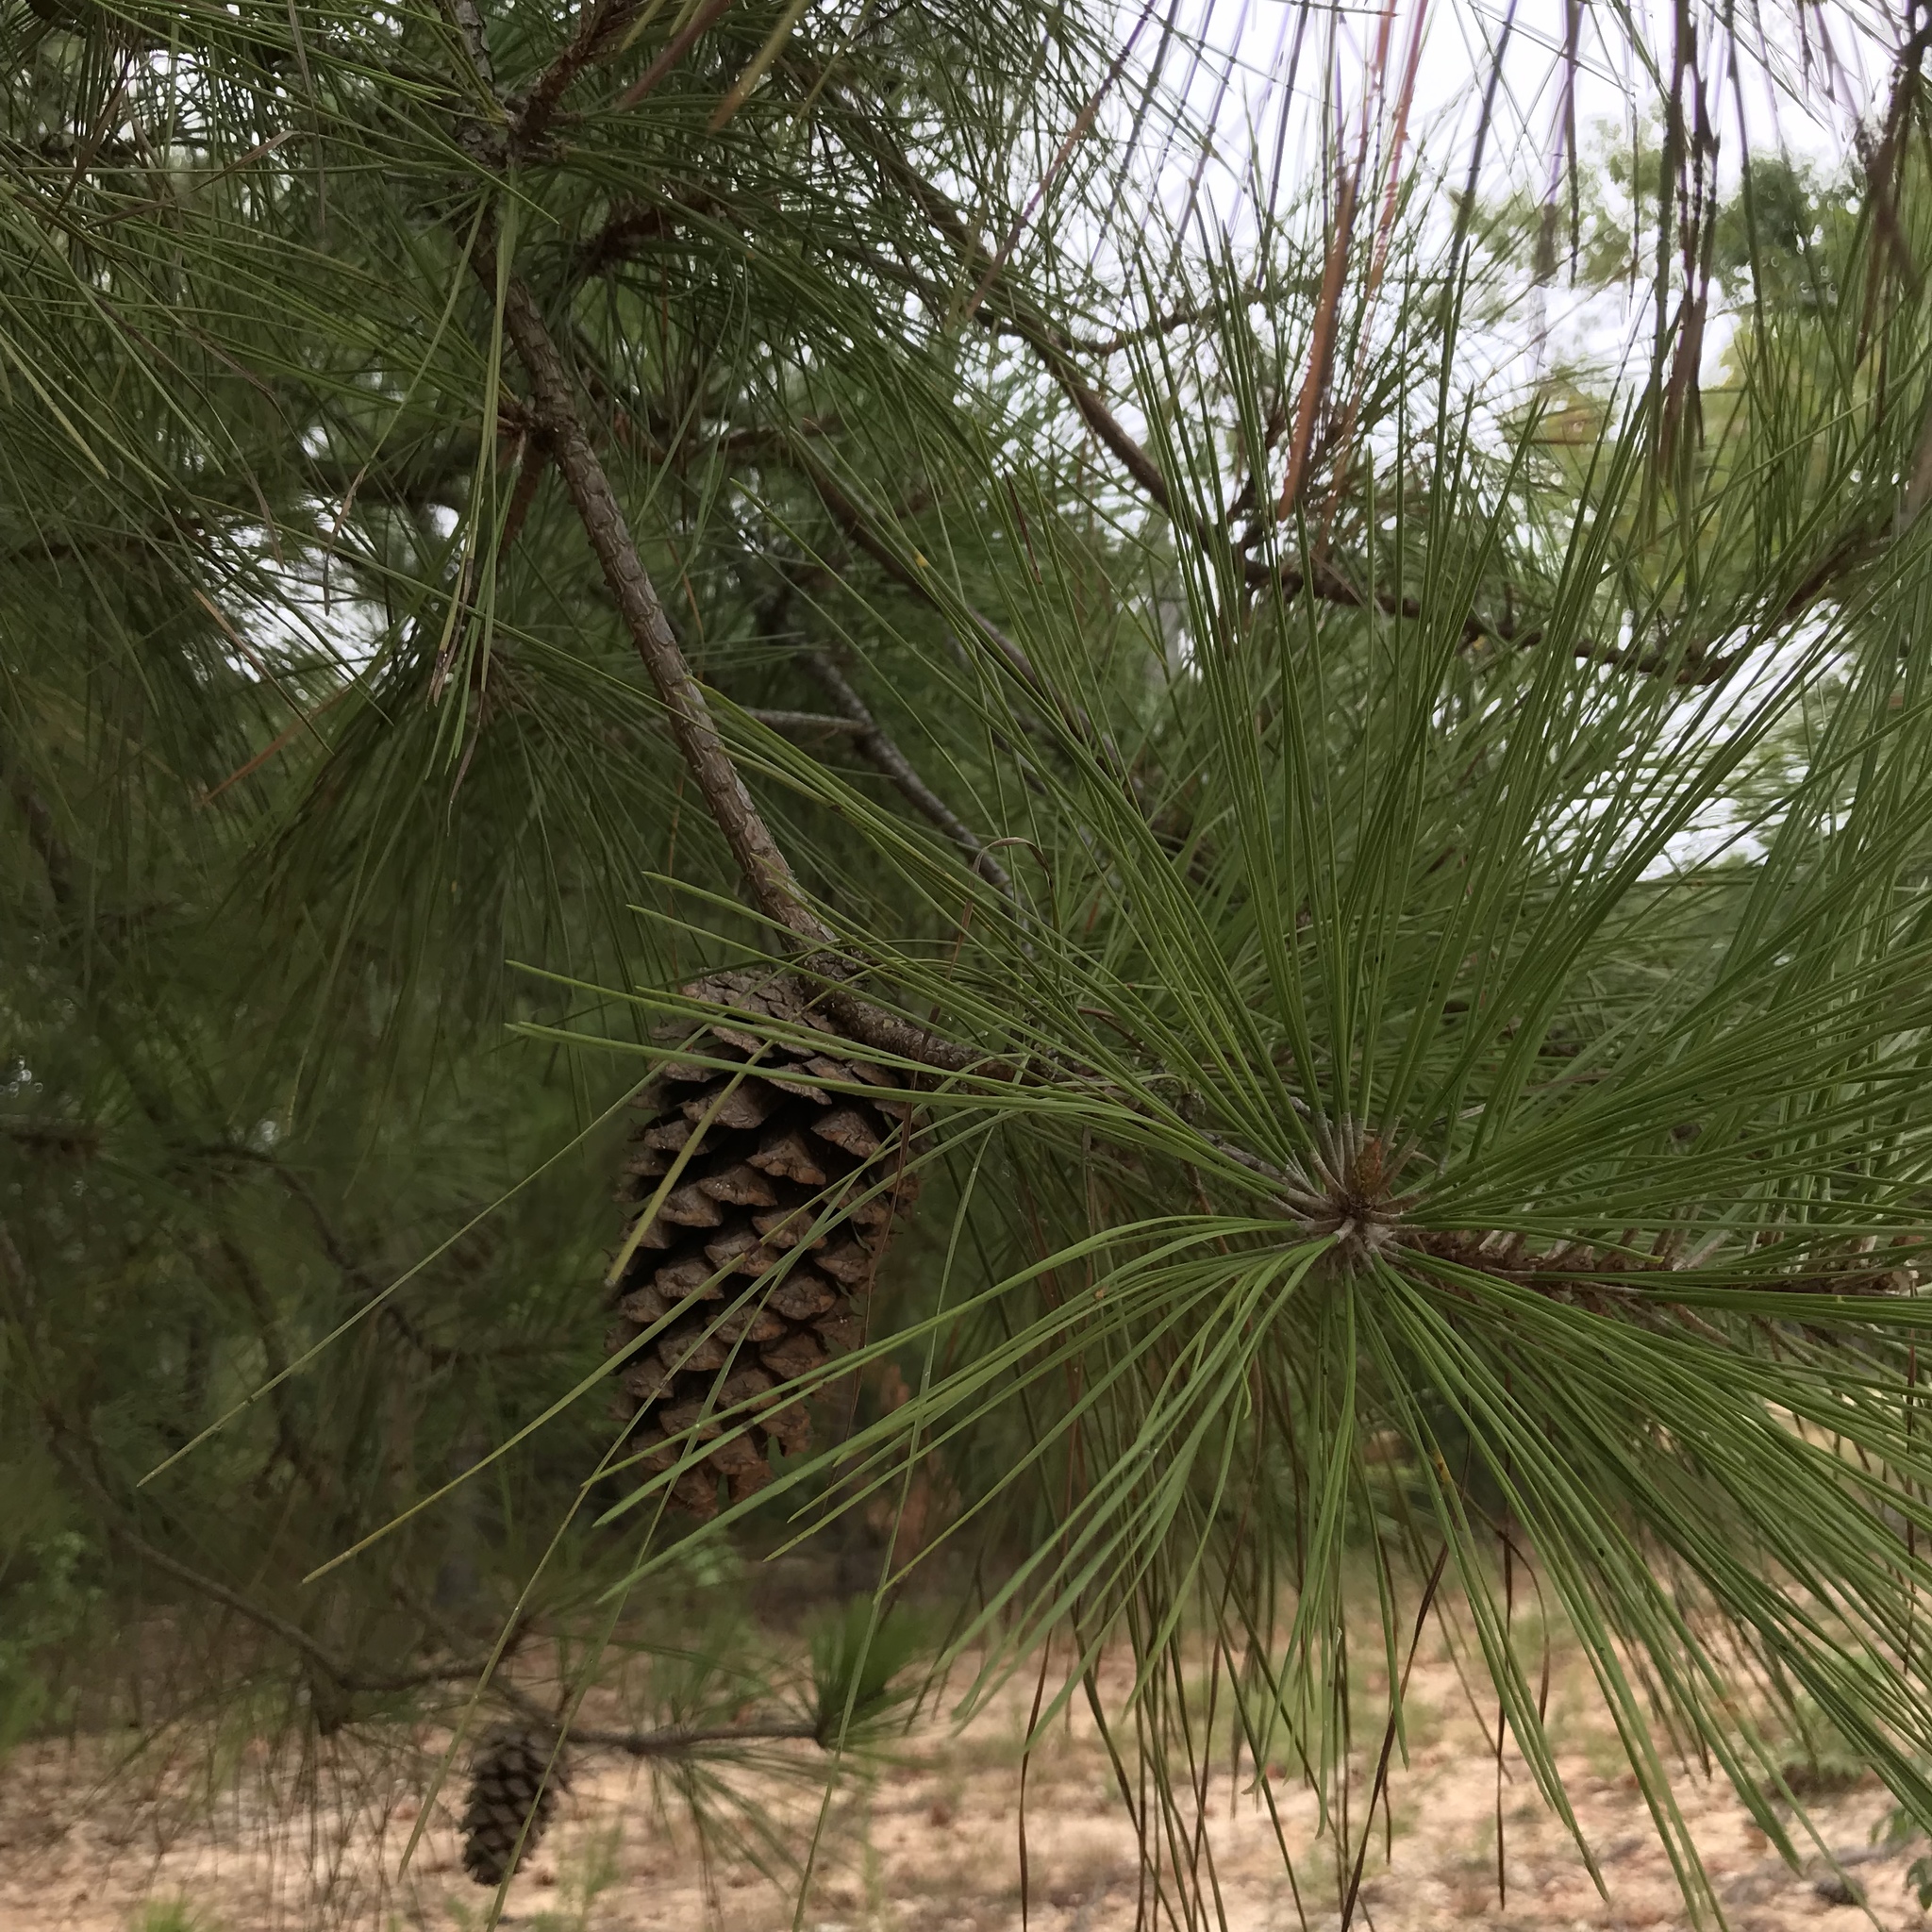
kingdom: Plantae
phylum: Tracheophyta
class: Pinopsida
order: Pinales
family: Pinaceae
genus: Pinus
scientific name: Pinus taeda
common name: Loblolly pine
